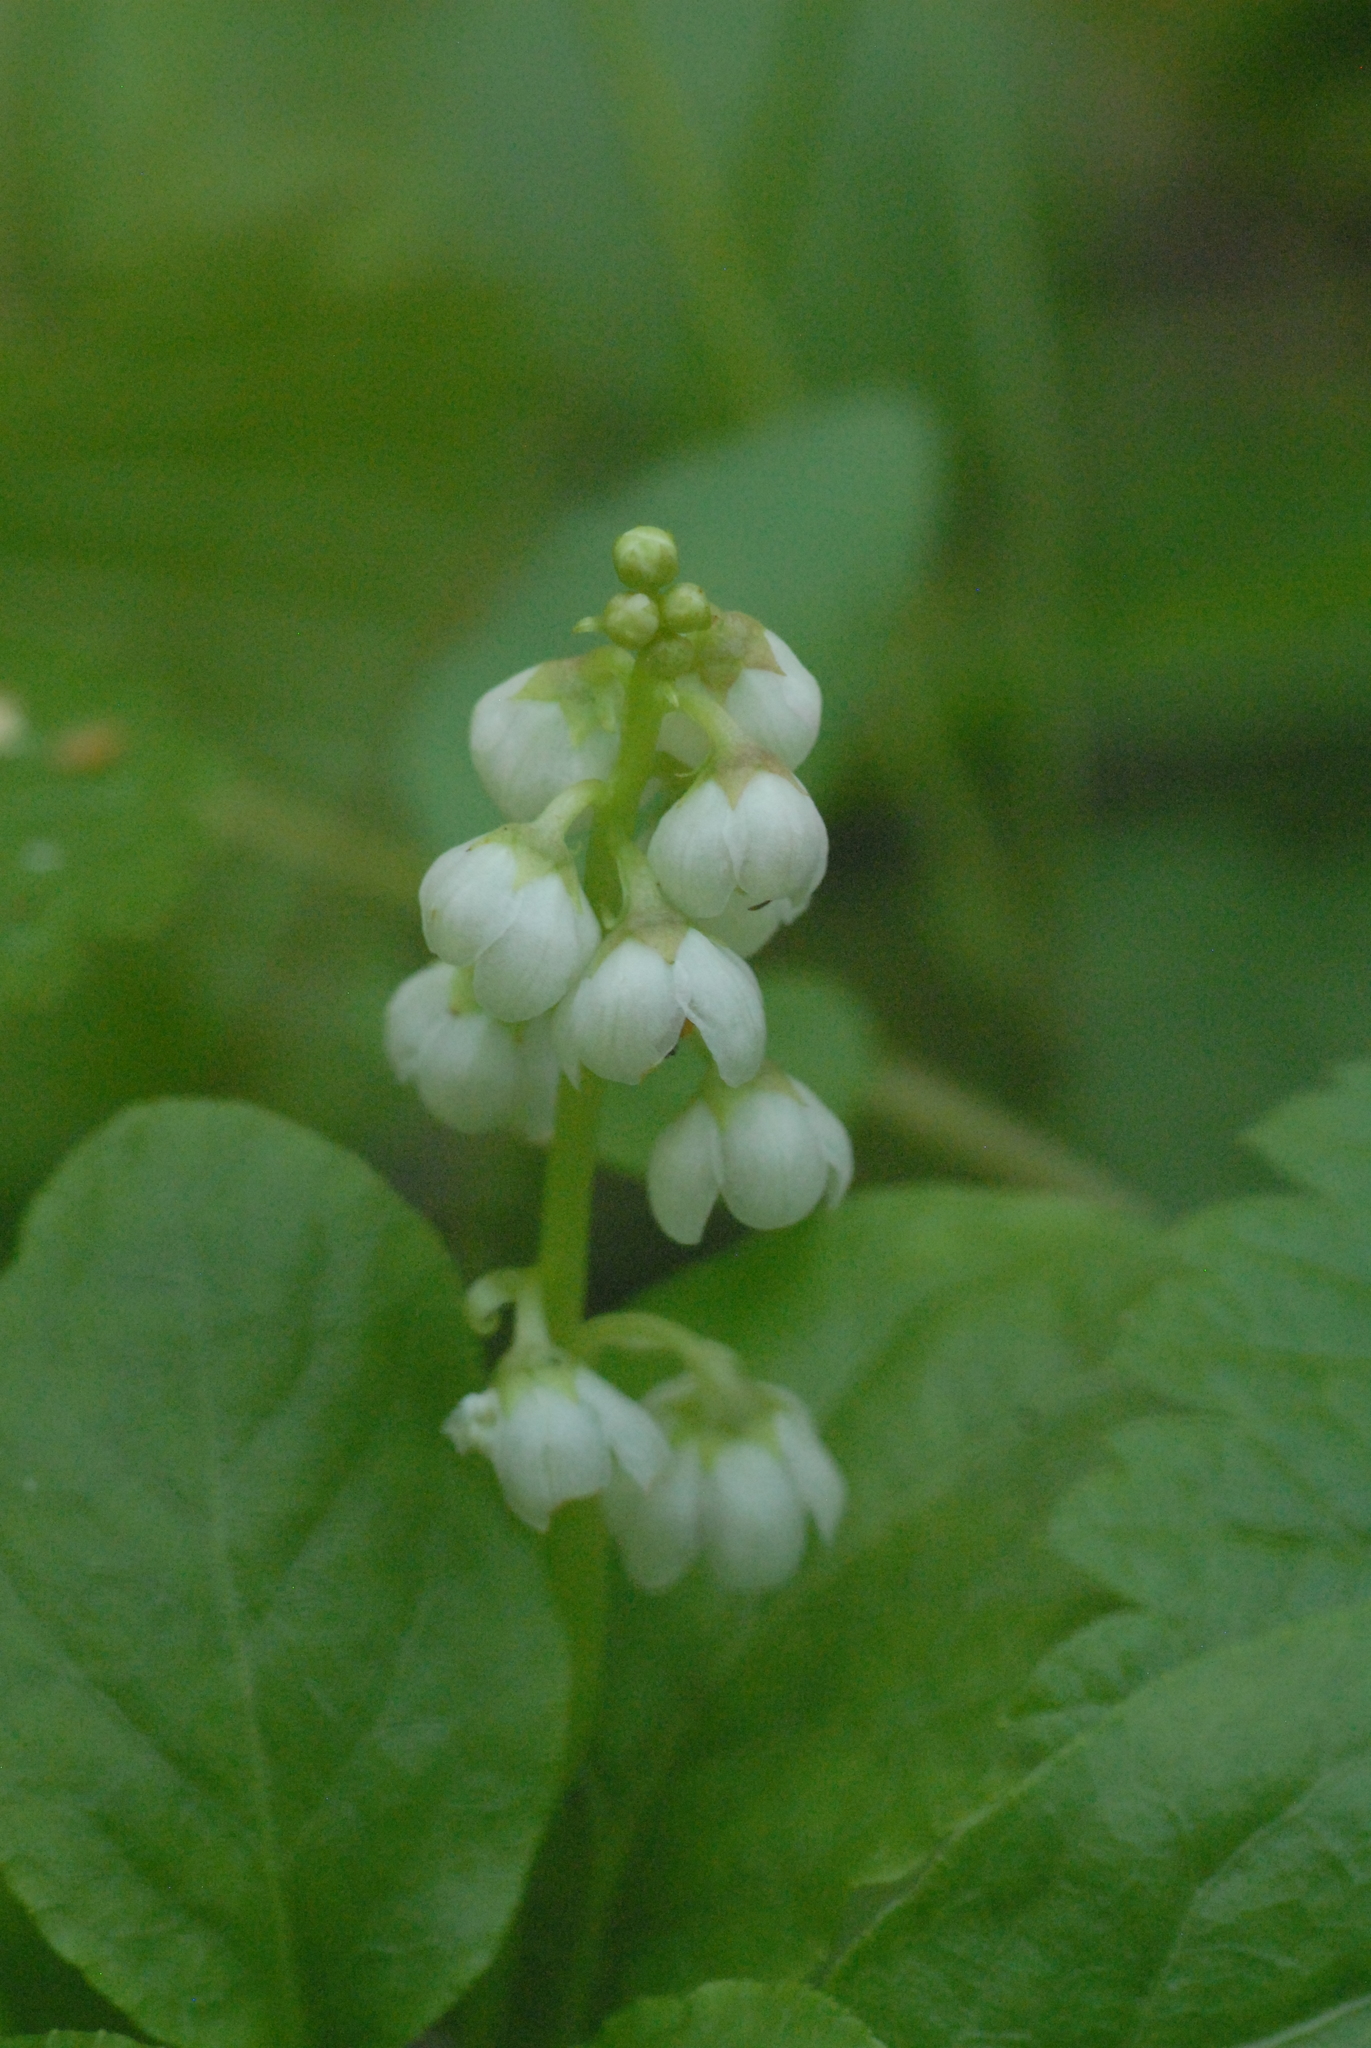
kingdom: Plantae
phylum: Tracheophyta
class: Magnoliopsida
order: Ericales
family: Ericaceae
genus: Pyrola
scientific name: Pyrola minor
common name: Common wintergreen
